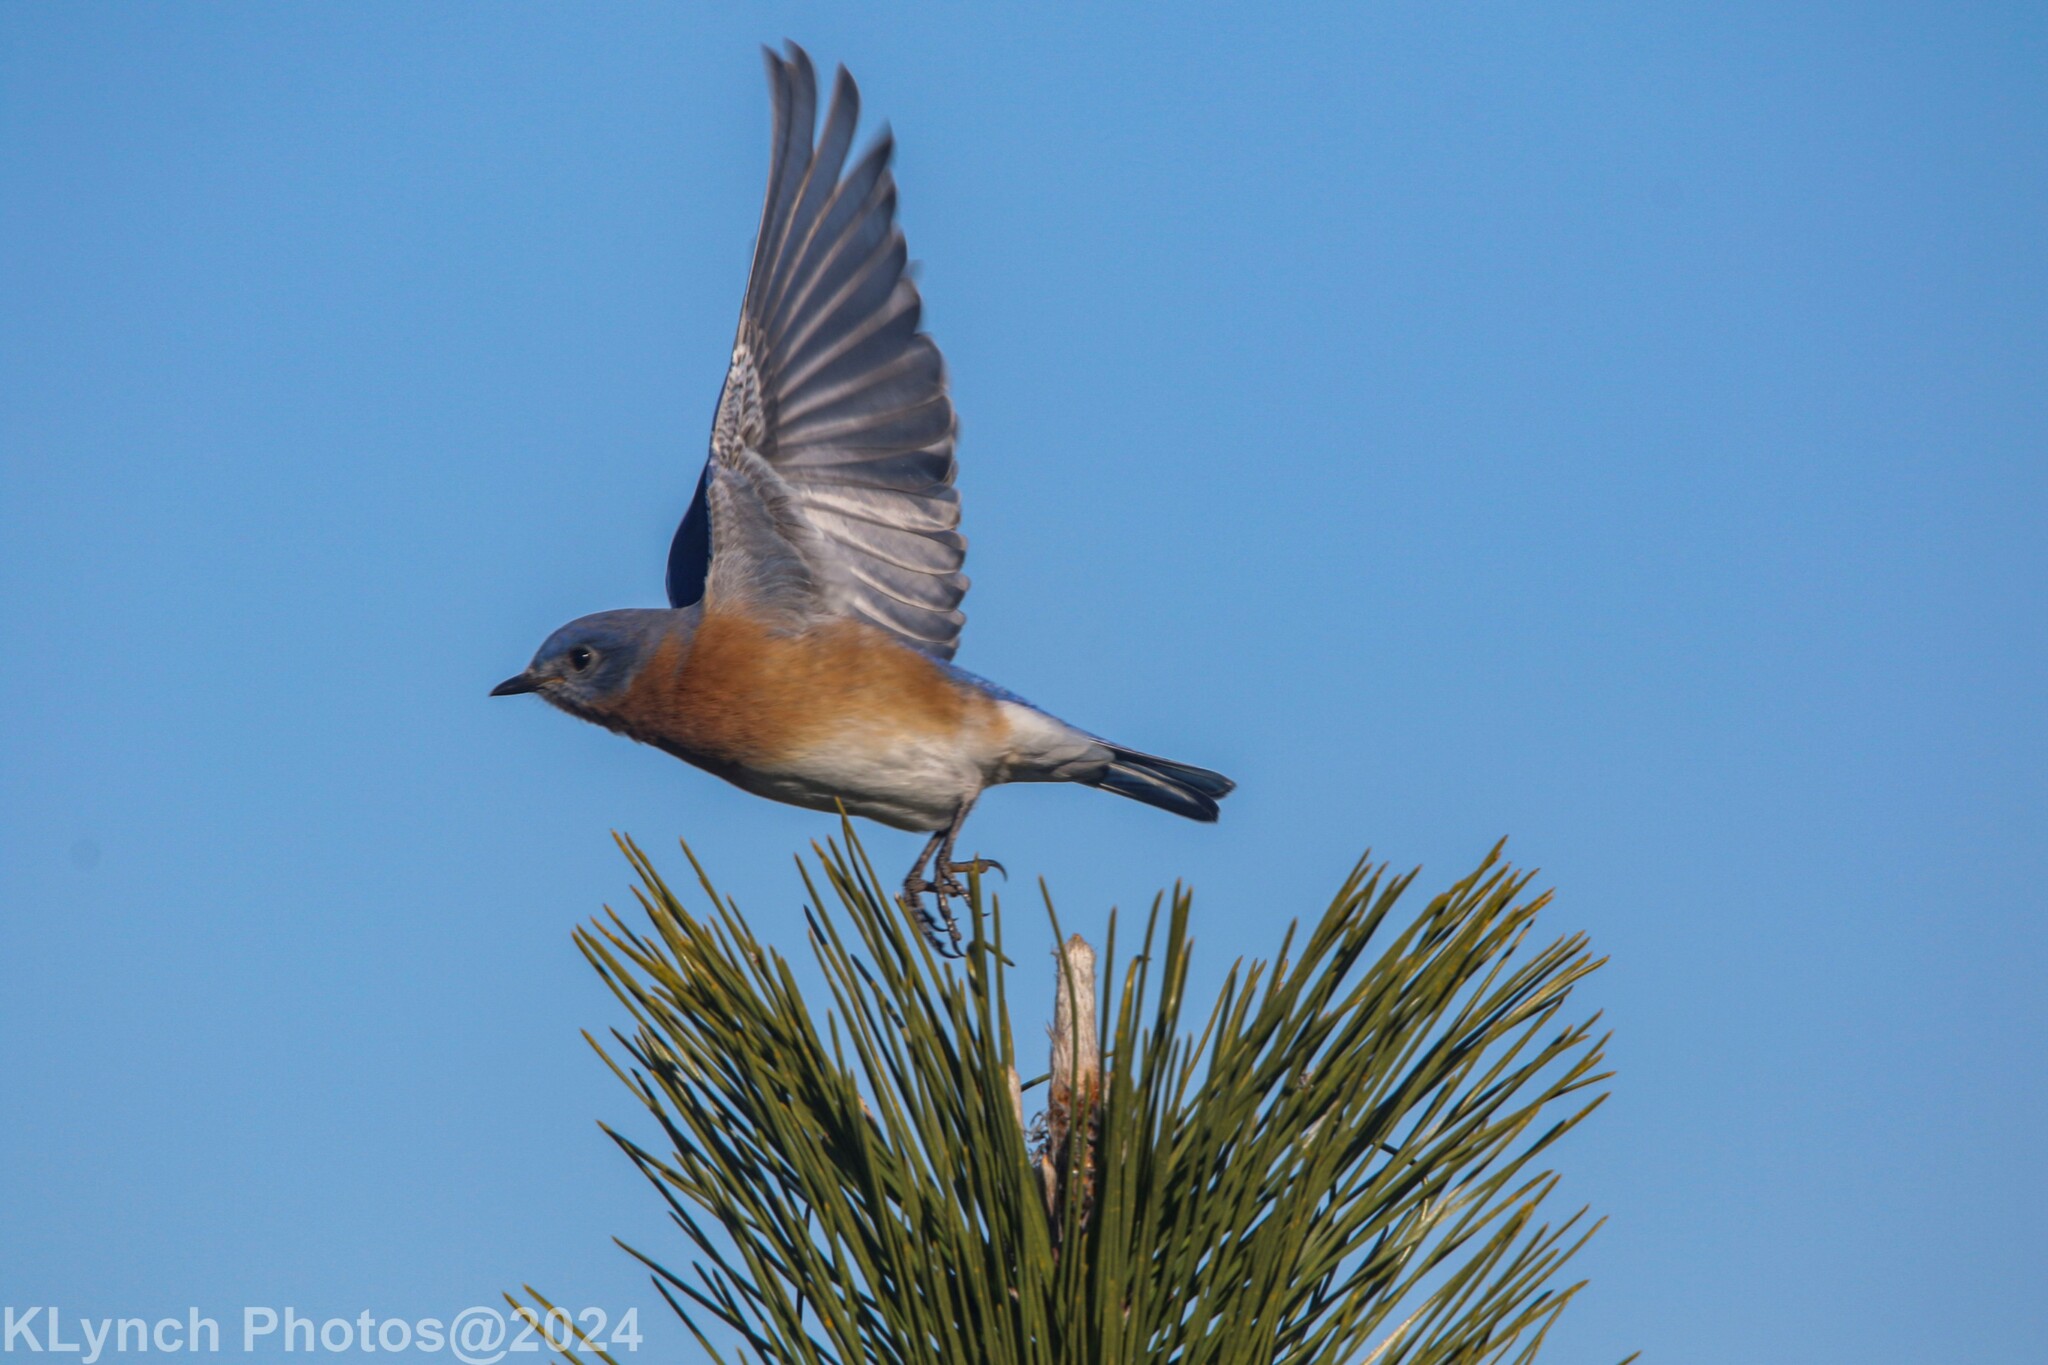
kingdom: Animalia
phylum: Chordata
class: Aves
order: Passeriformes
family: Turdidae
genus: Sialia
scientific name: Sialia sialis
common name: Eastern bluebird
